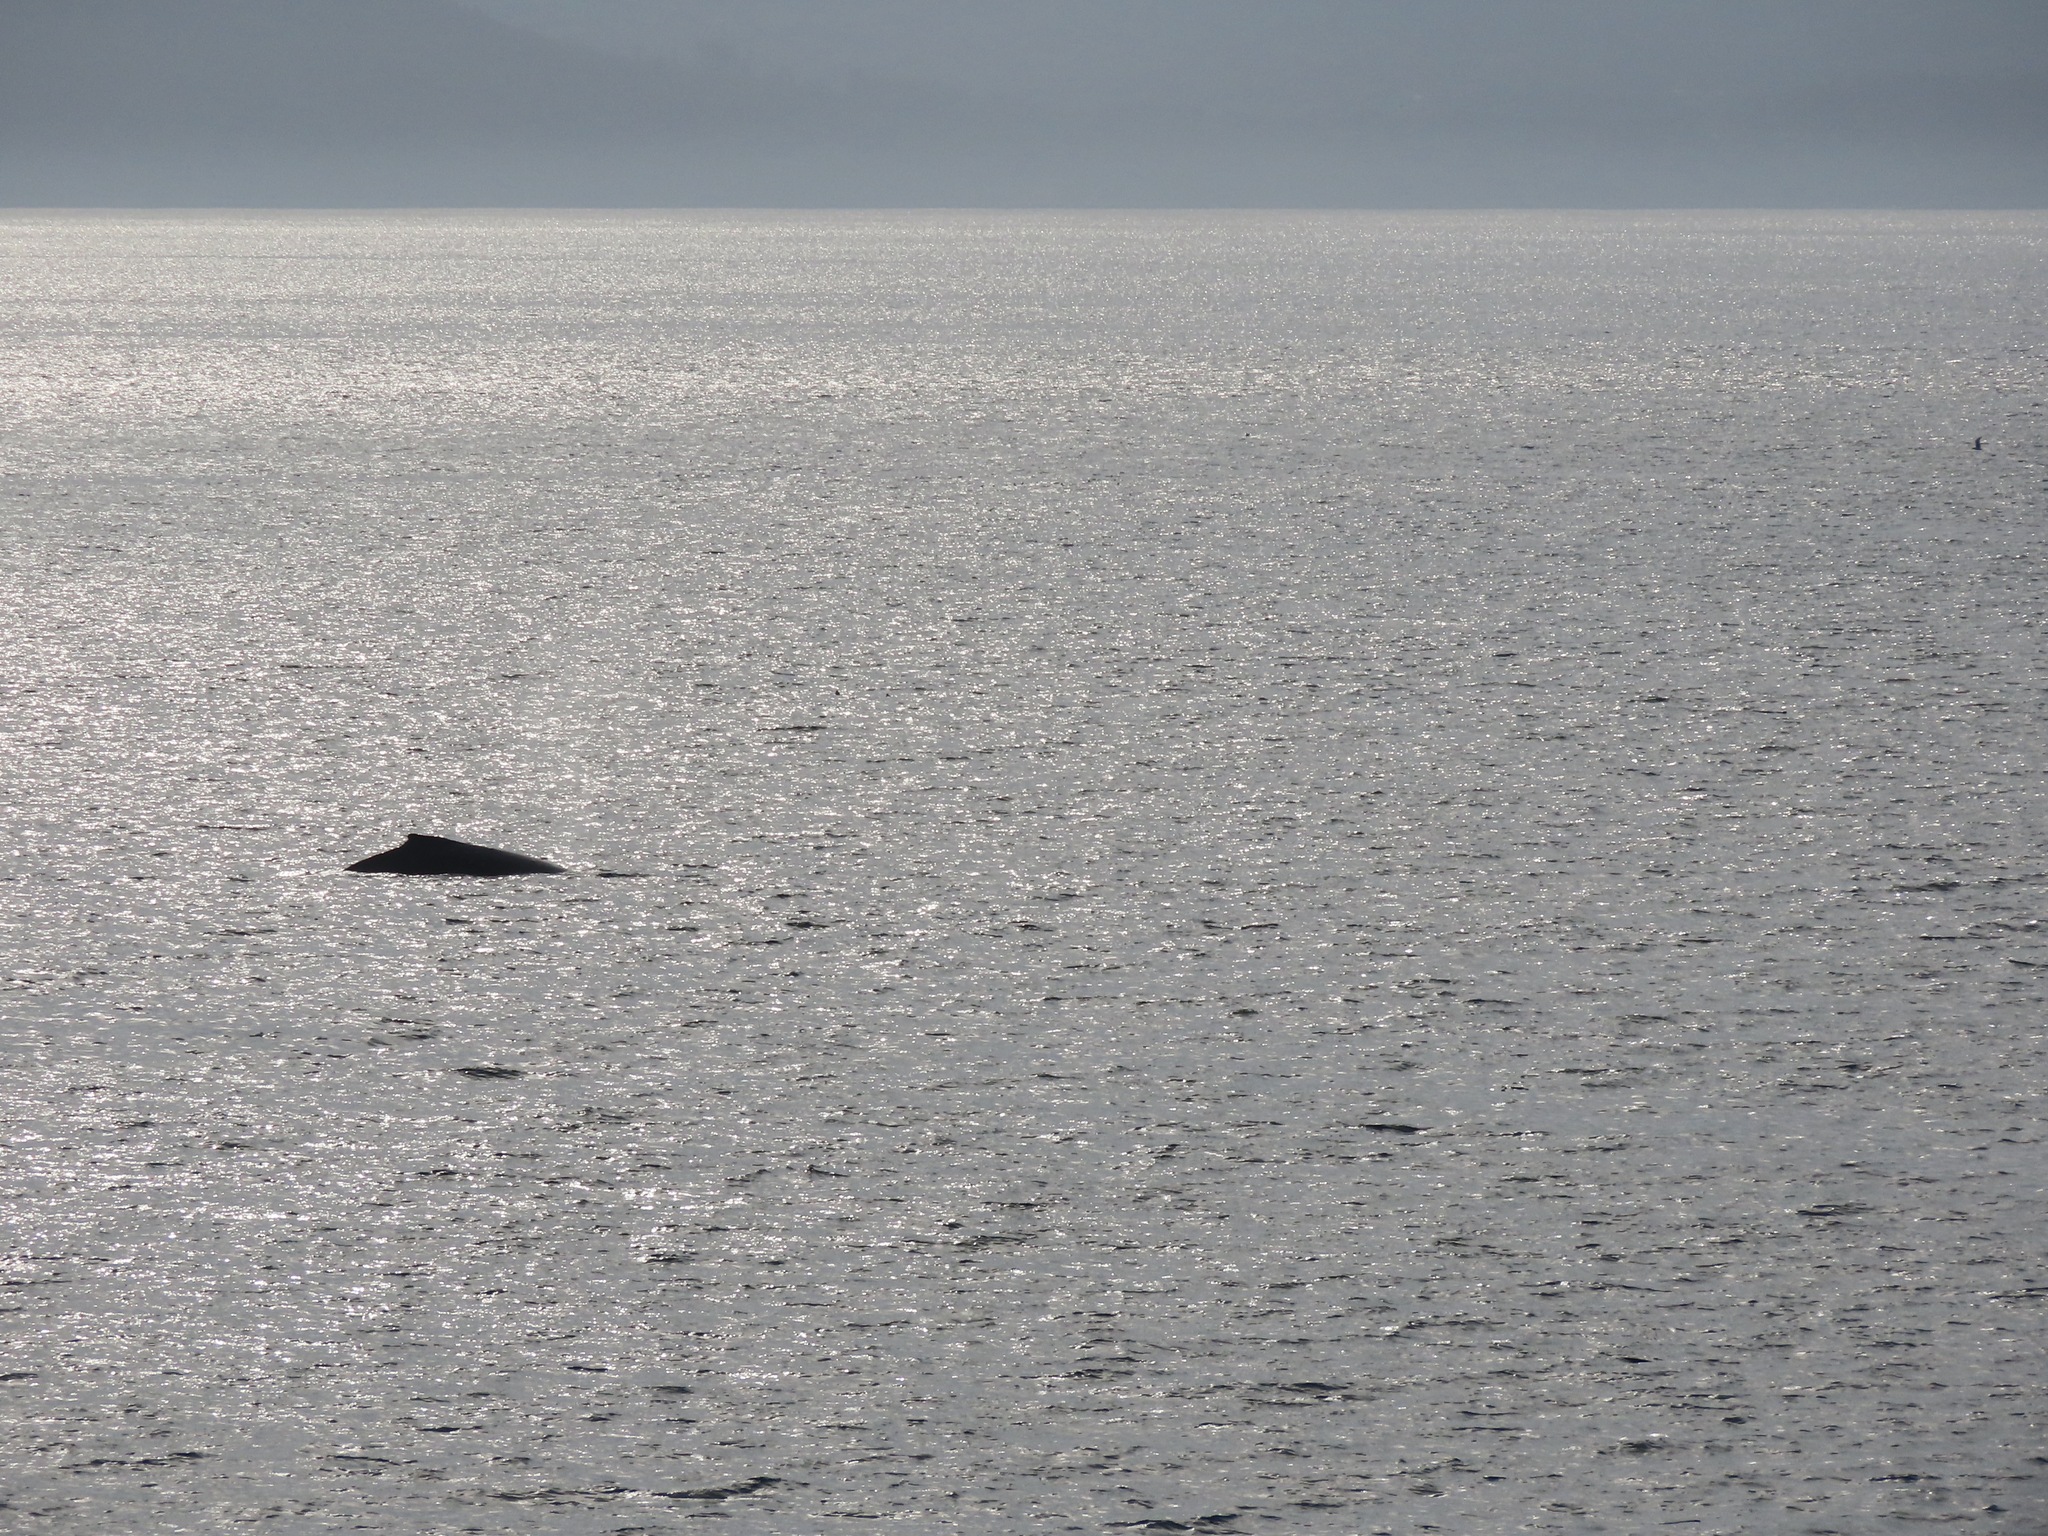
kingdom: Animalia
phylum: Chordata
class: Mammalia
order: Cetacea
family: Balaenopteridae
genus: Megaptera
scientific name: Megaptera novaeangliae
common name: Humpback whale
